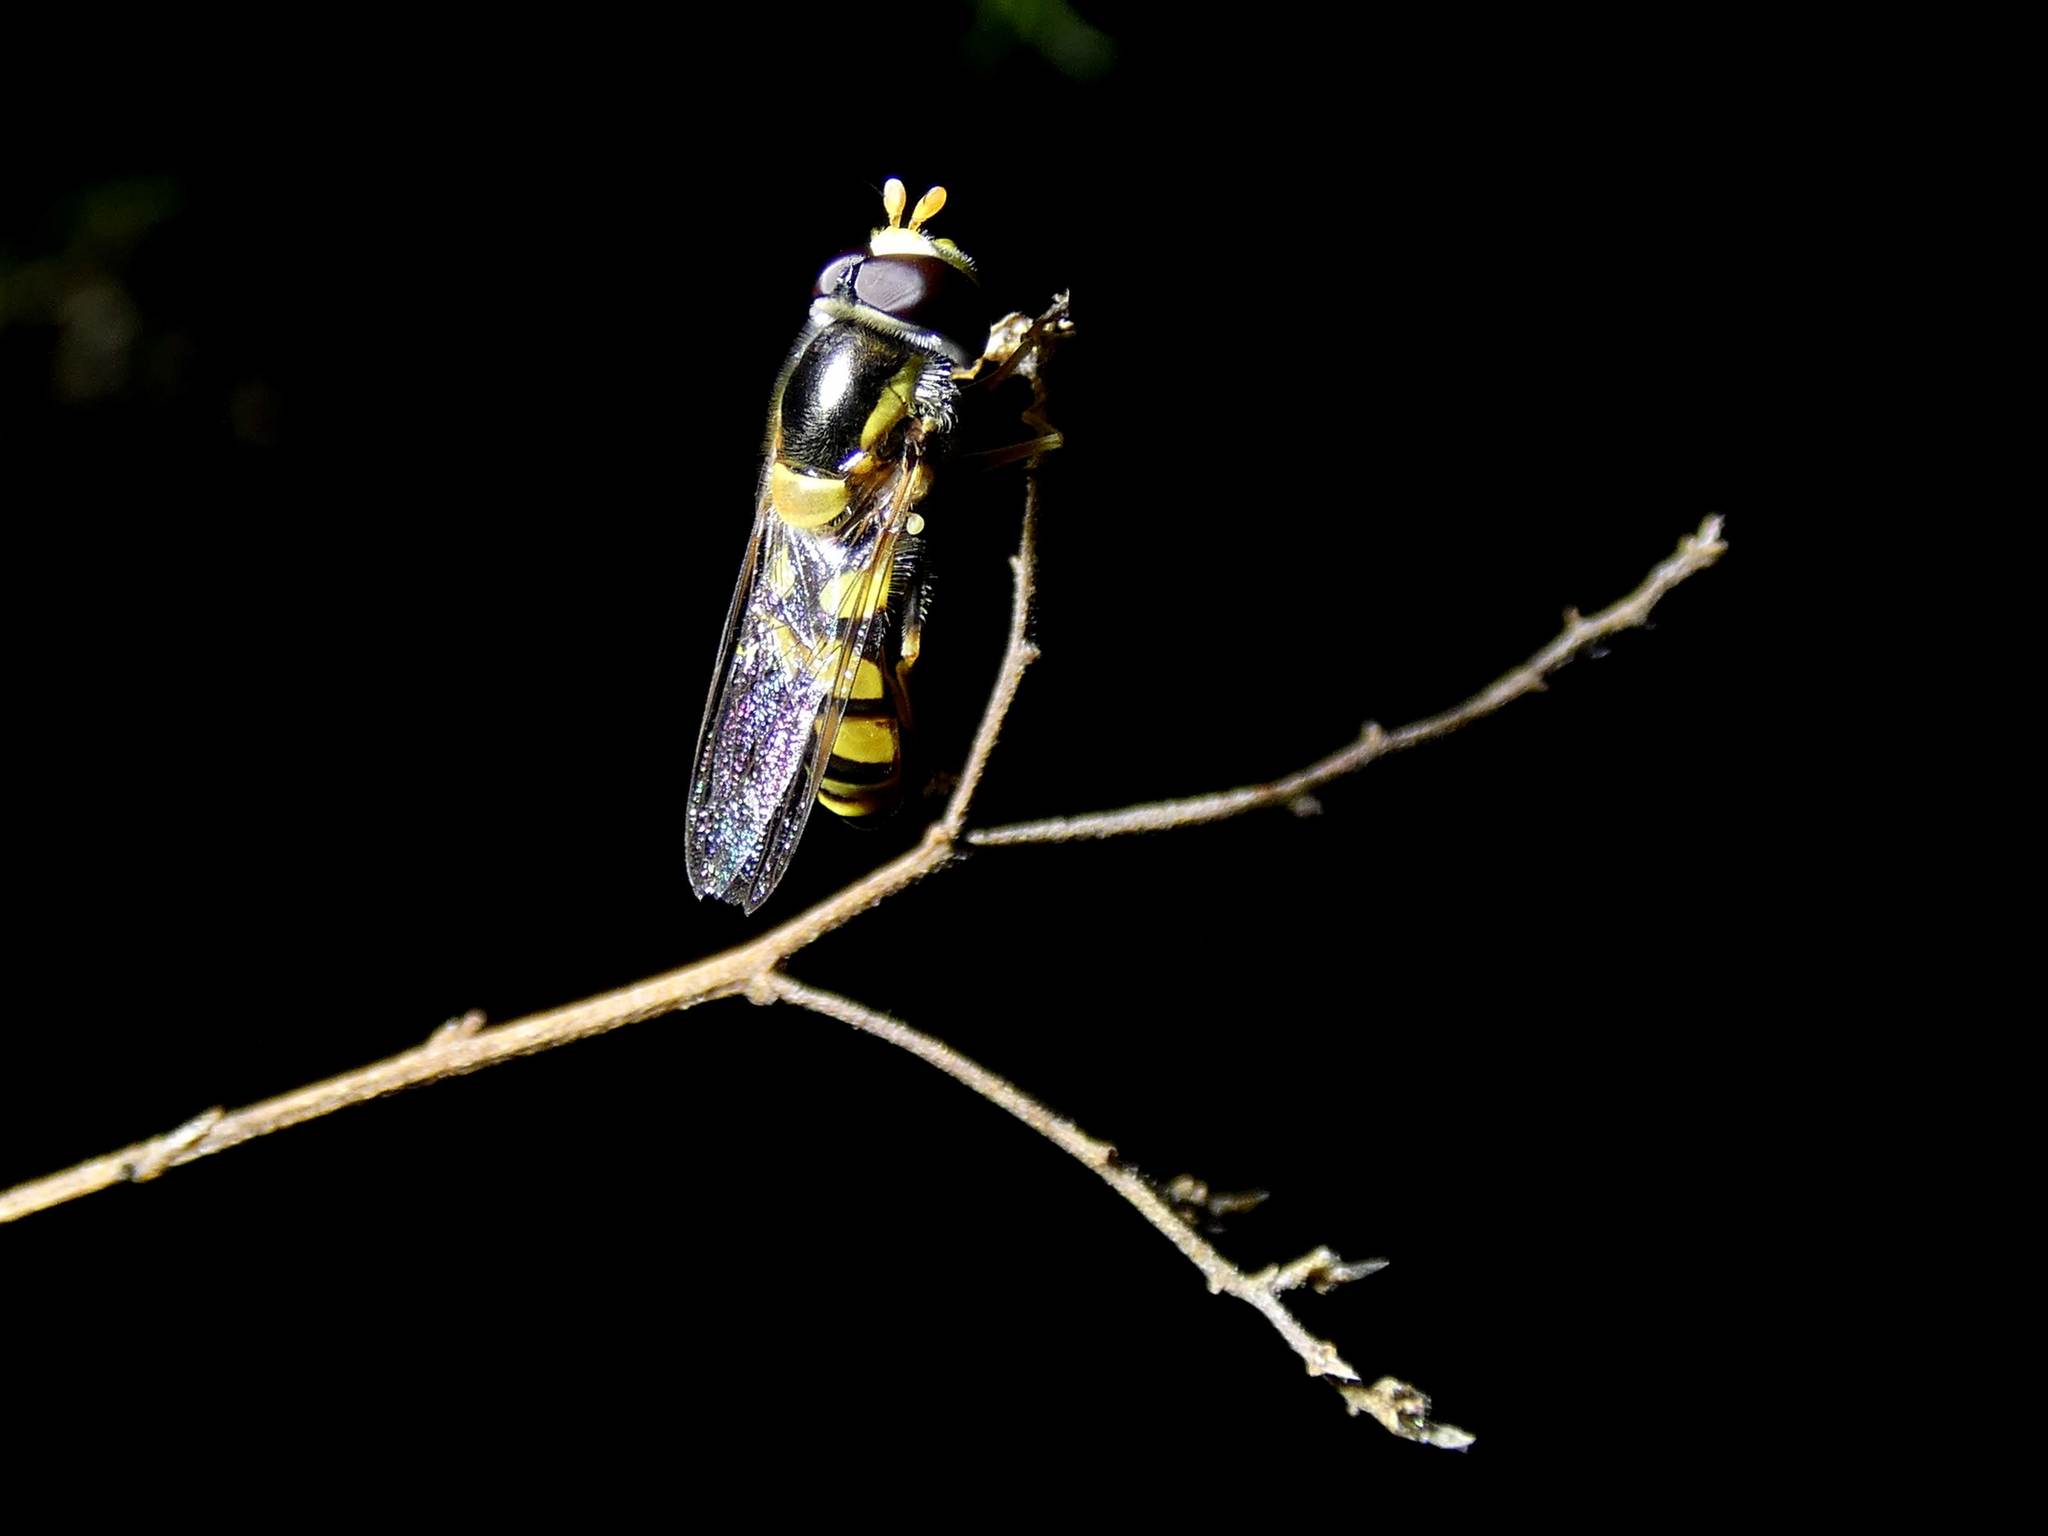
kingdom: Animalia
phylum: Arthropoda
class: Insecta
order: Diptera
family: Syrphidae
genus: Simosyrphus
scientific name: Simosyrphus grandicornis
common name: Hoverfly
